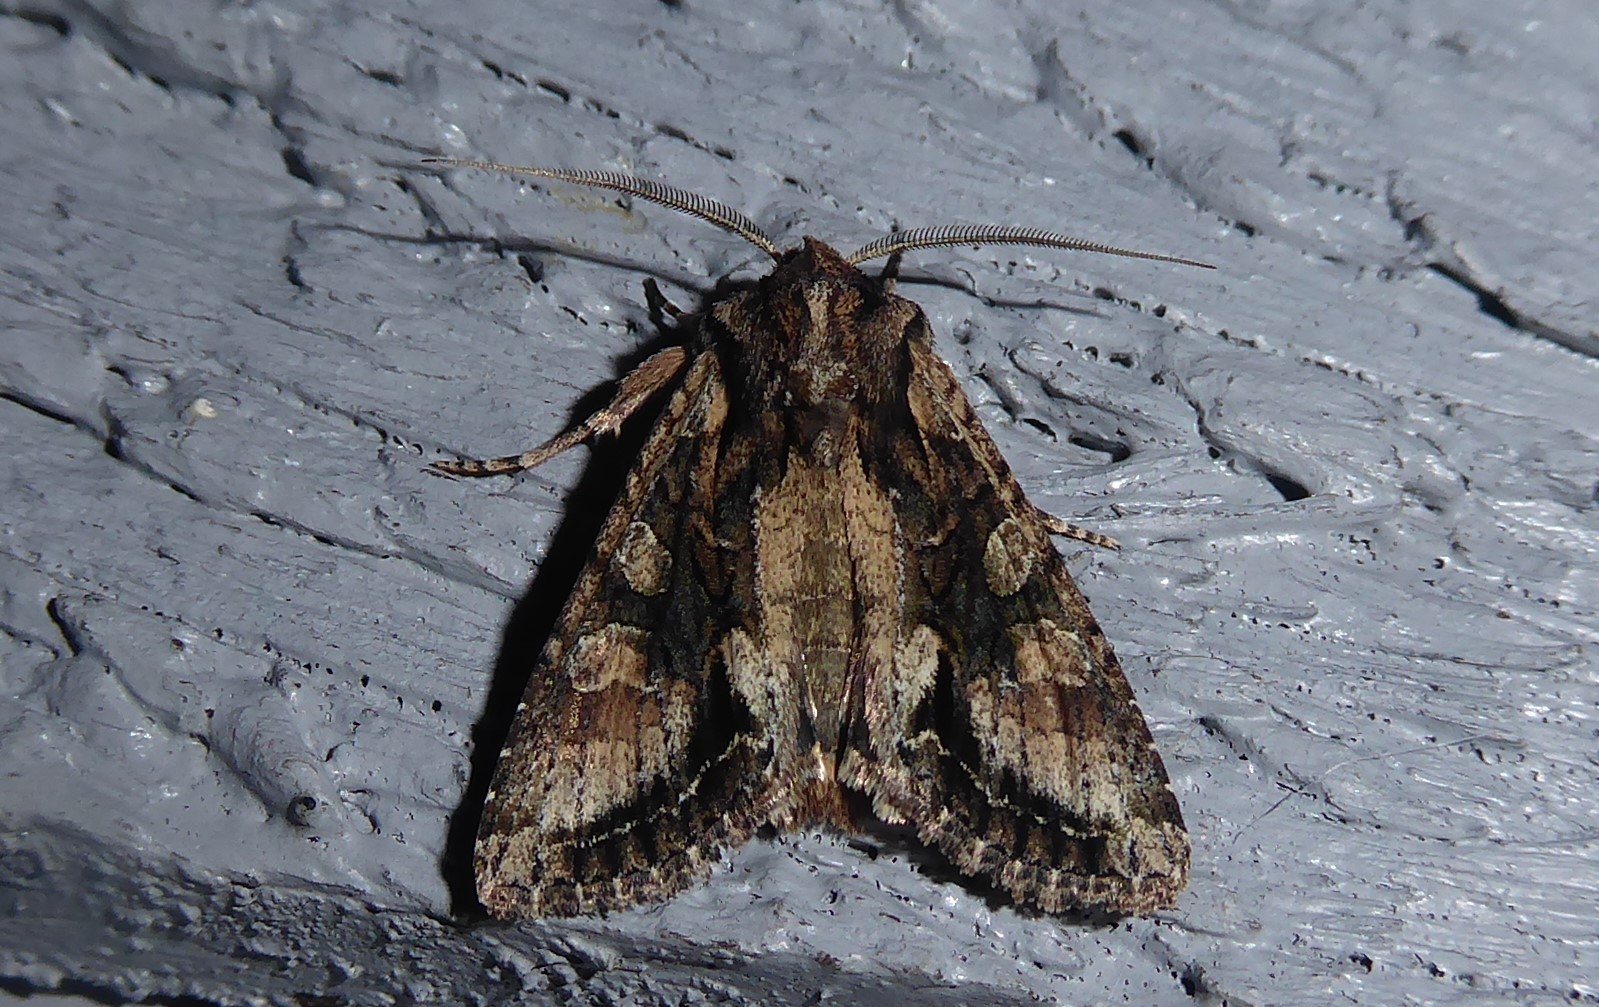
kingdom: Animalia
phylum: Arthropoda
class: Insecta
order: Lepidoptera
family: Noctuidae
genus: Ichneutica
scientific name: Ichneutica mutans
